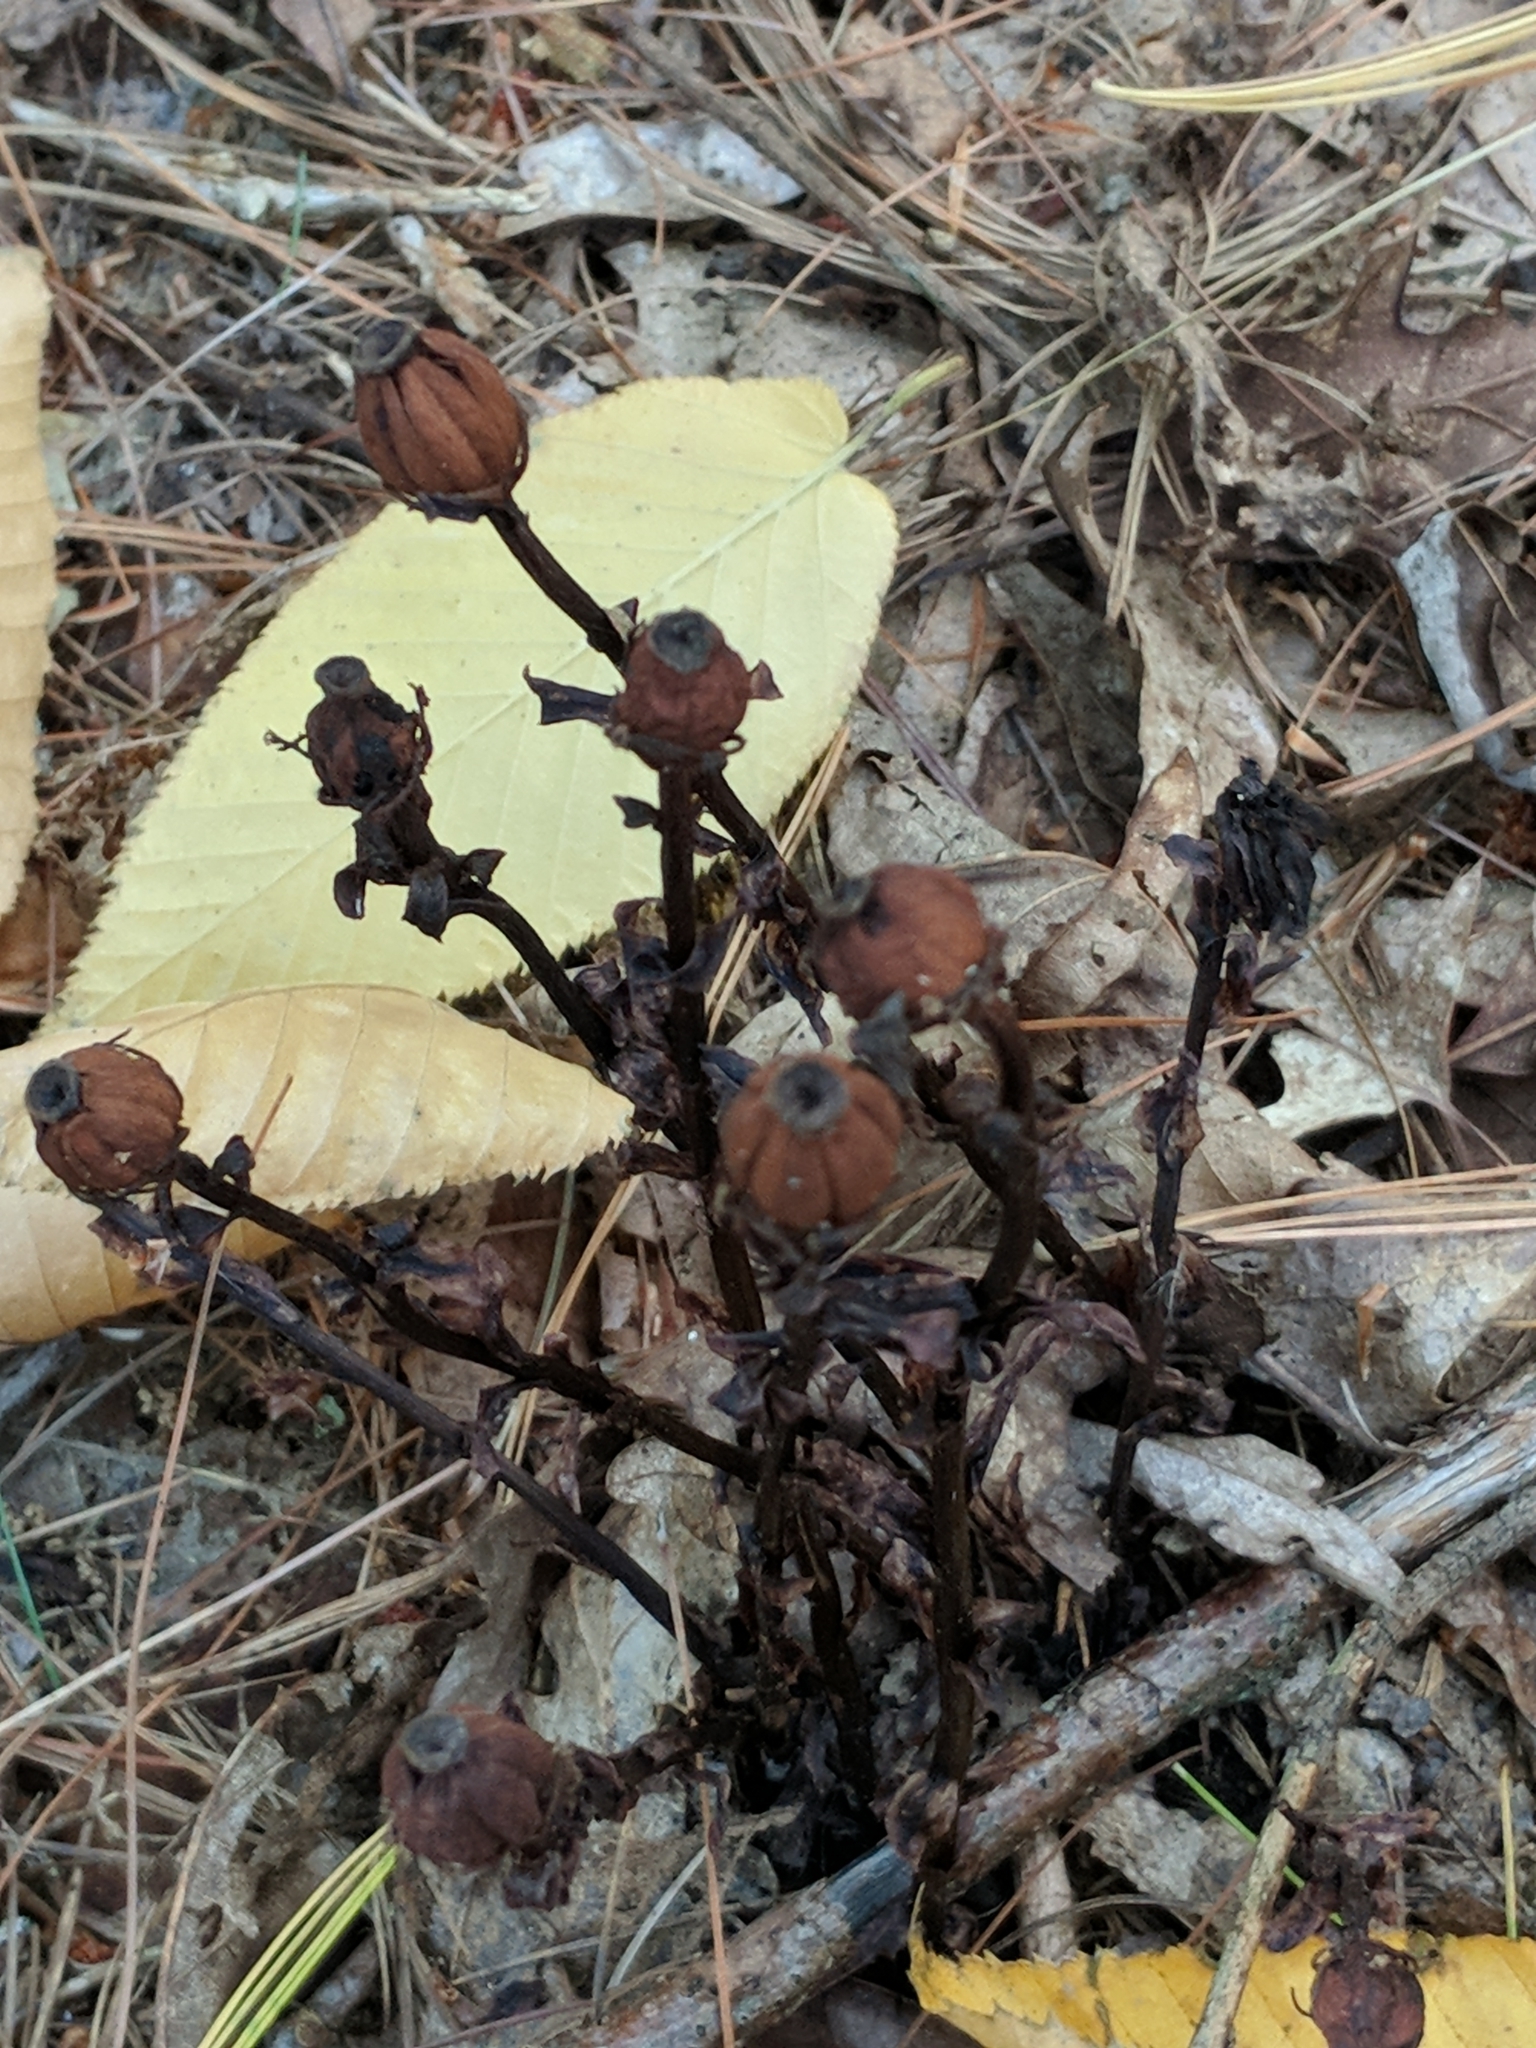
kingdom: Plantae
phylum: Tracheophyta
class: Magnoliopsida
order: Ericales
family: Ericaceae
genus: Monotropa
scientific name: Monotropa uniflora
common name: Convulsion root
